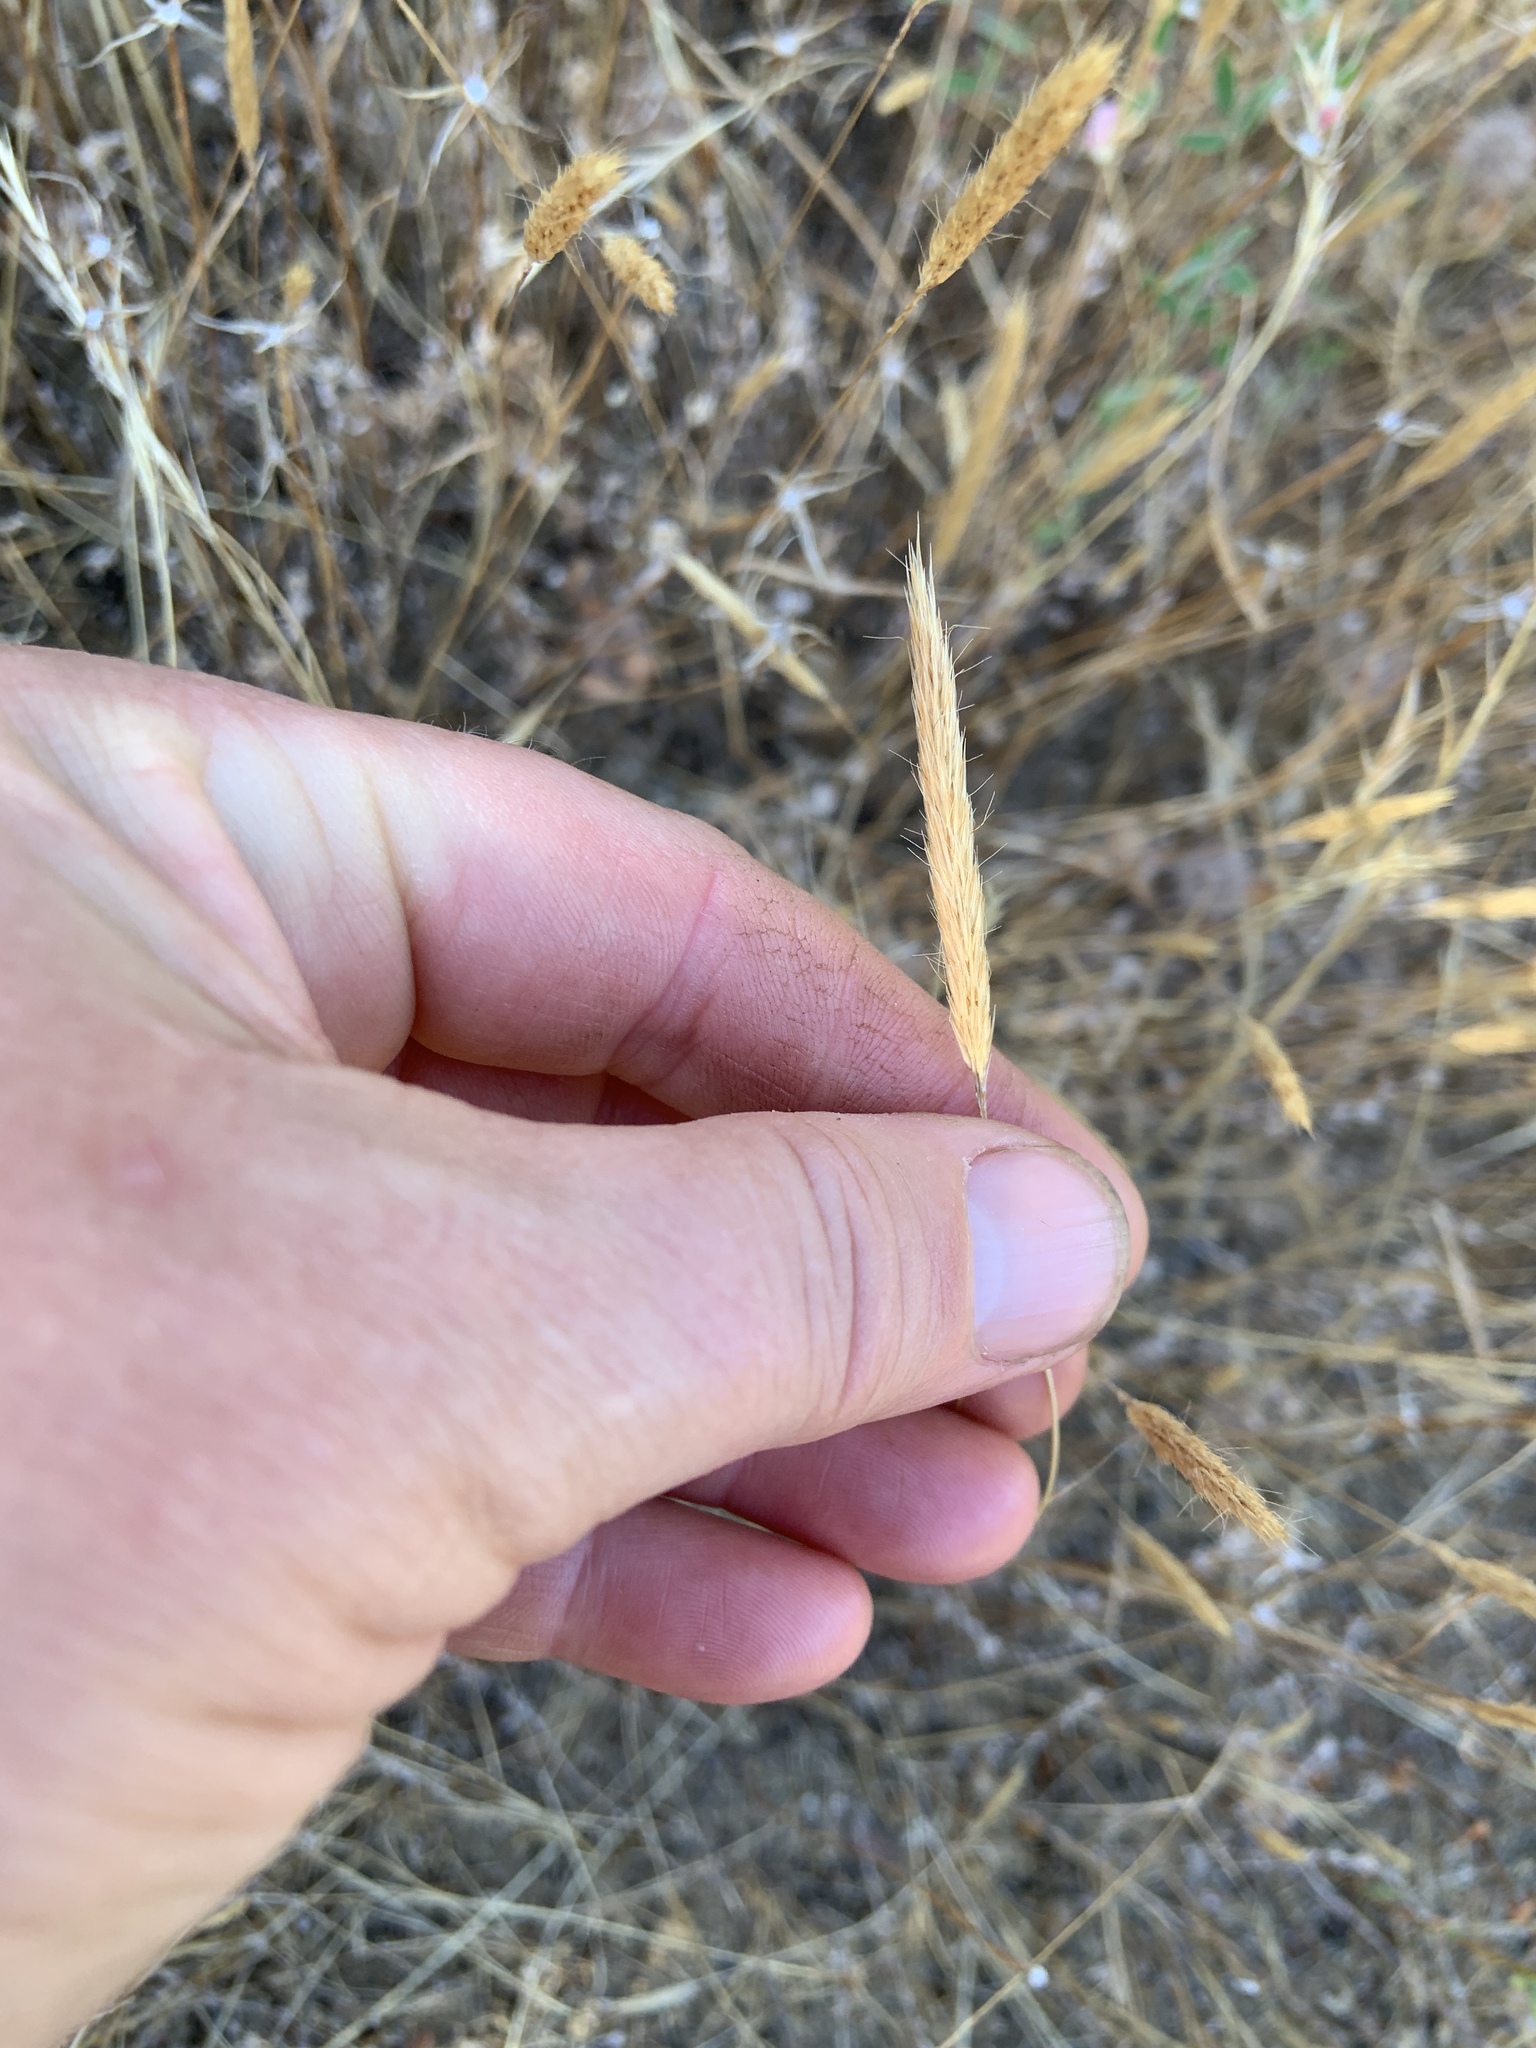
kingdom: Plantae
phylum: Tracheophyta
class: Liliopsida
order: Poales
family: Poaceae
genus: Gastridium
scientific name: Gastridium ventricosum
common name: Nit-grass
